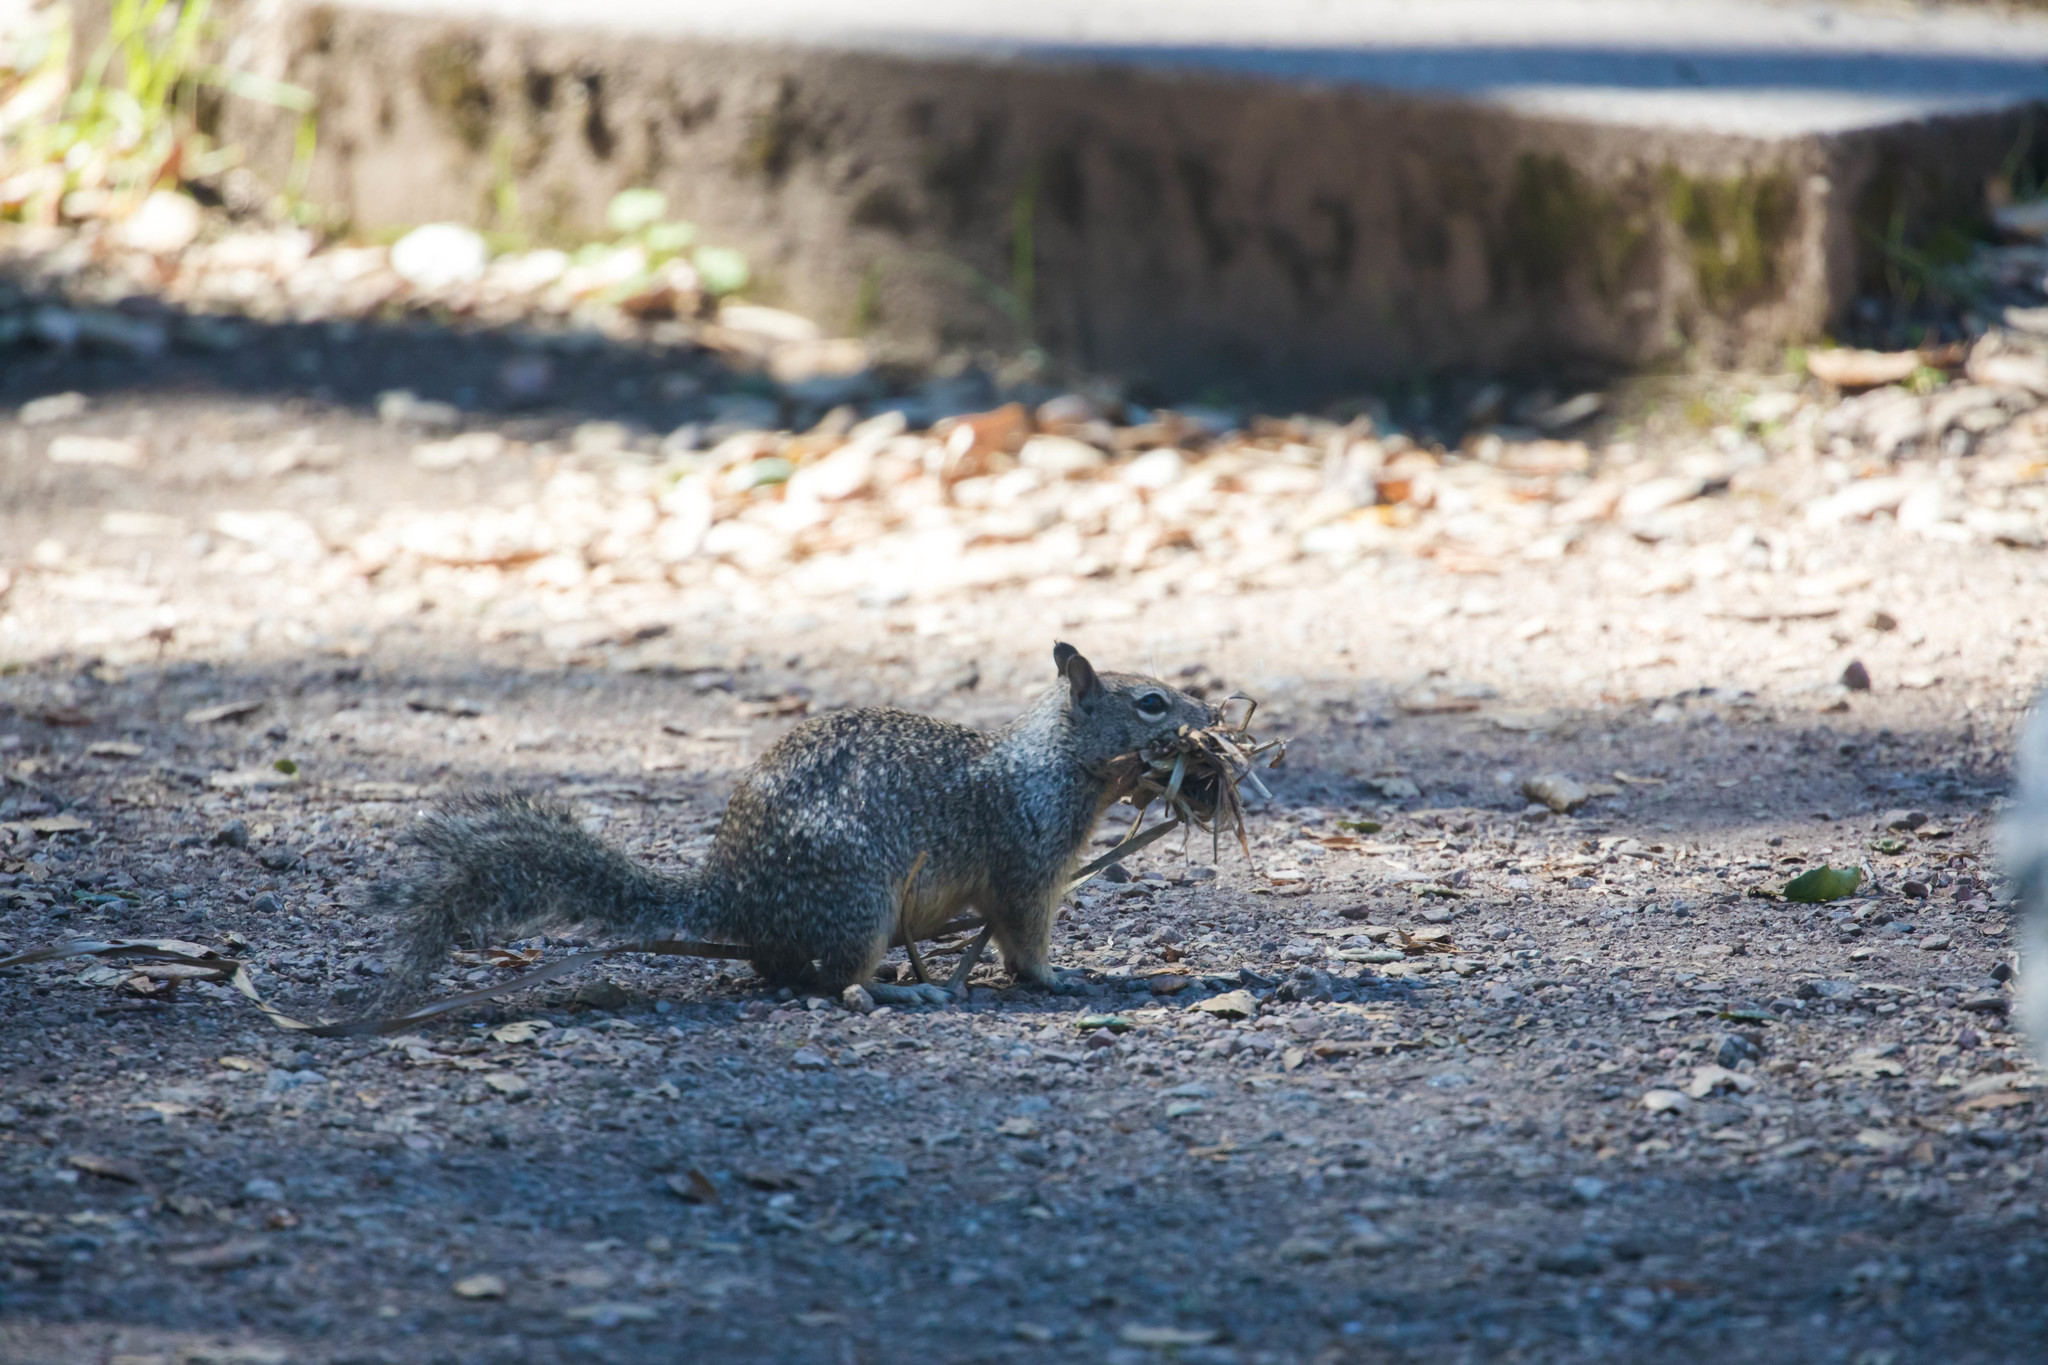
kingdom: Animalia
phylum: Chordata
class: Mammalia
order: Rodentia
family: Sciuridae
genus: Otospermophilus
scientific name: Otospermophilus beecheyi
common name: California ground squirrel
